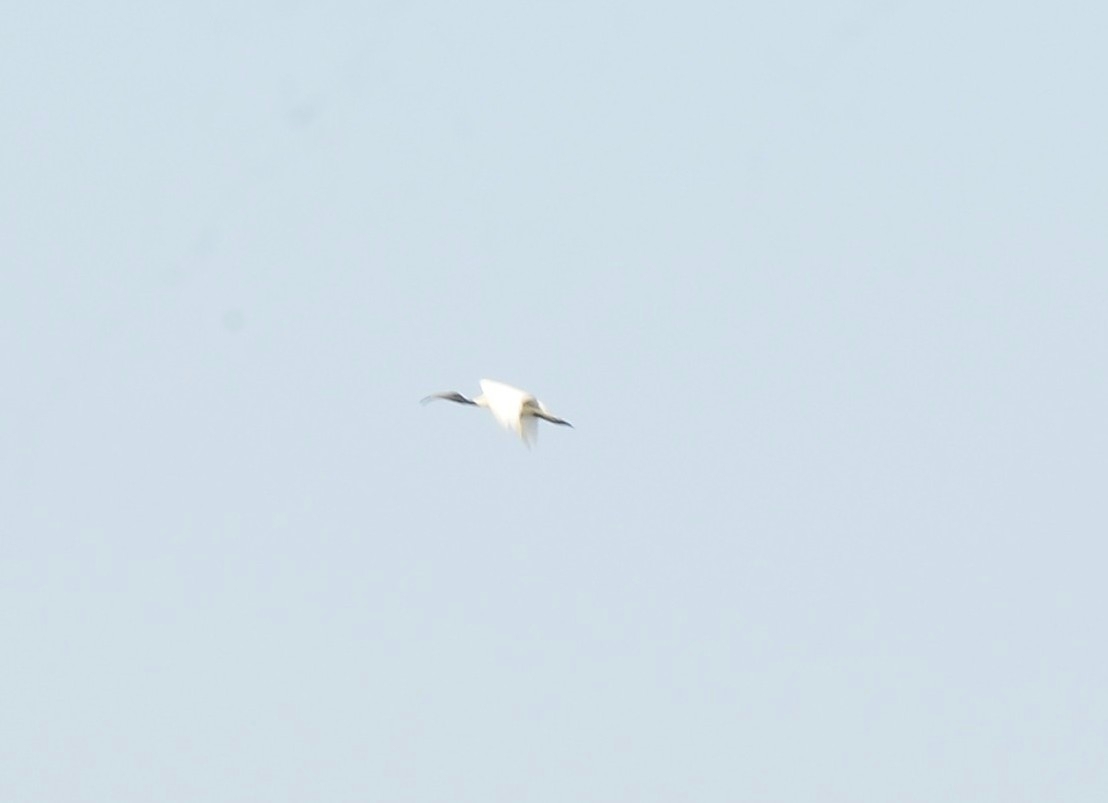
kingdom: Animalia
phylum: Chordata
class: Aves
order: Pelecaniformes
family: Threskiornithidae
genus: Threskiornis
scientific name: Threskiornis melanocephalus
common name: Black-headed ibis
